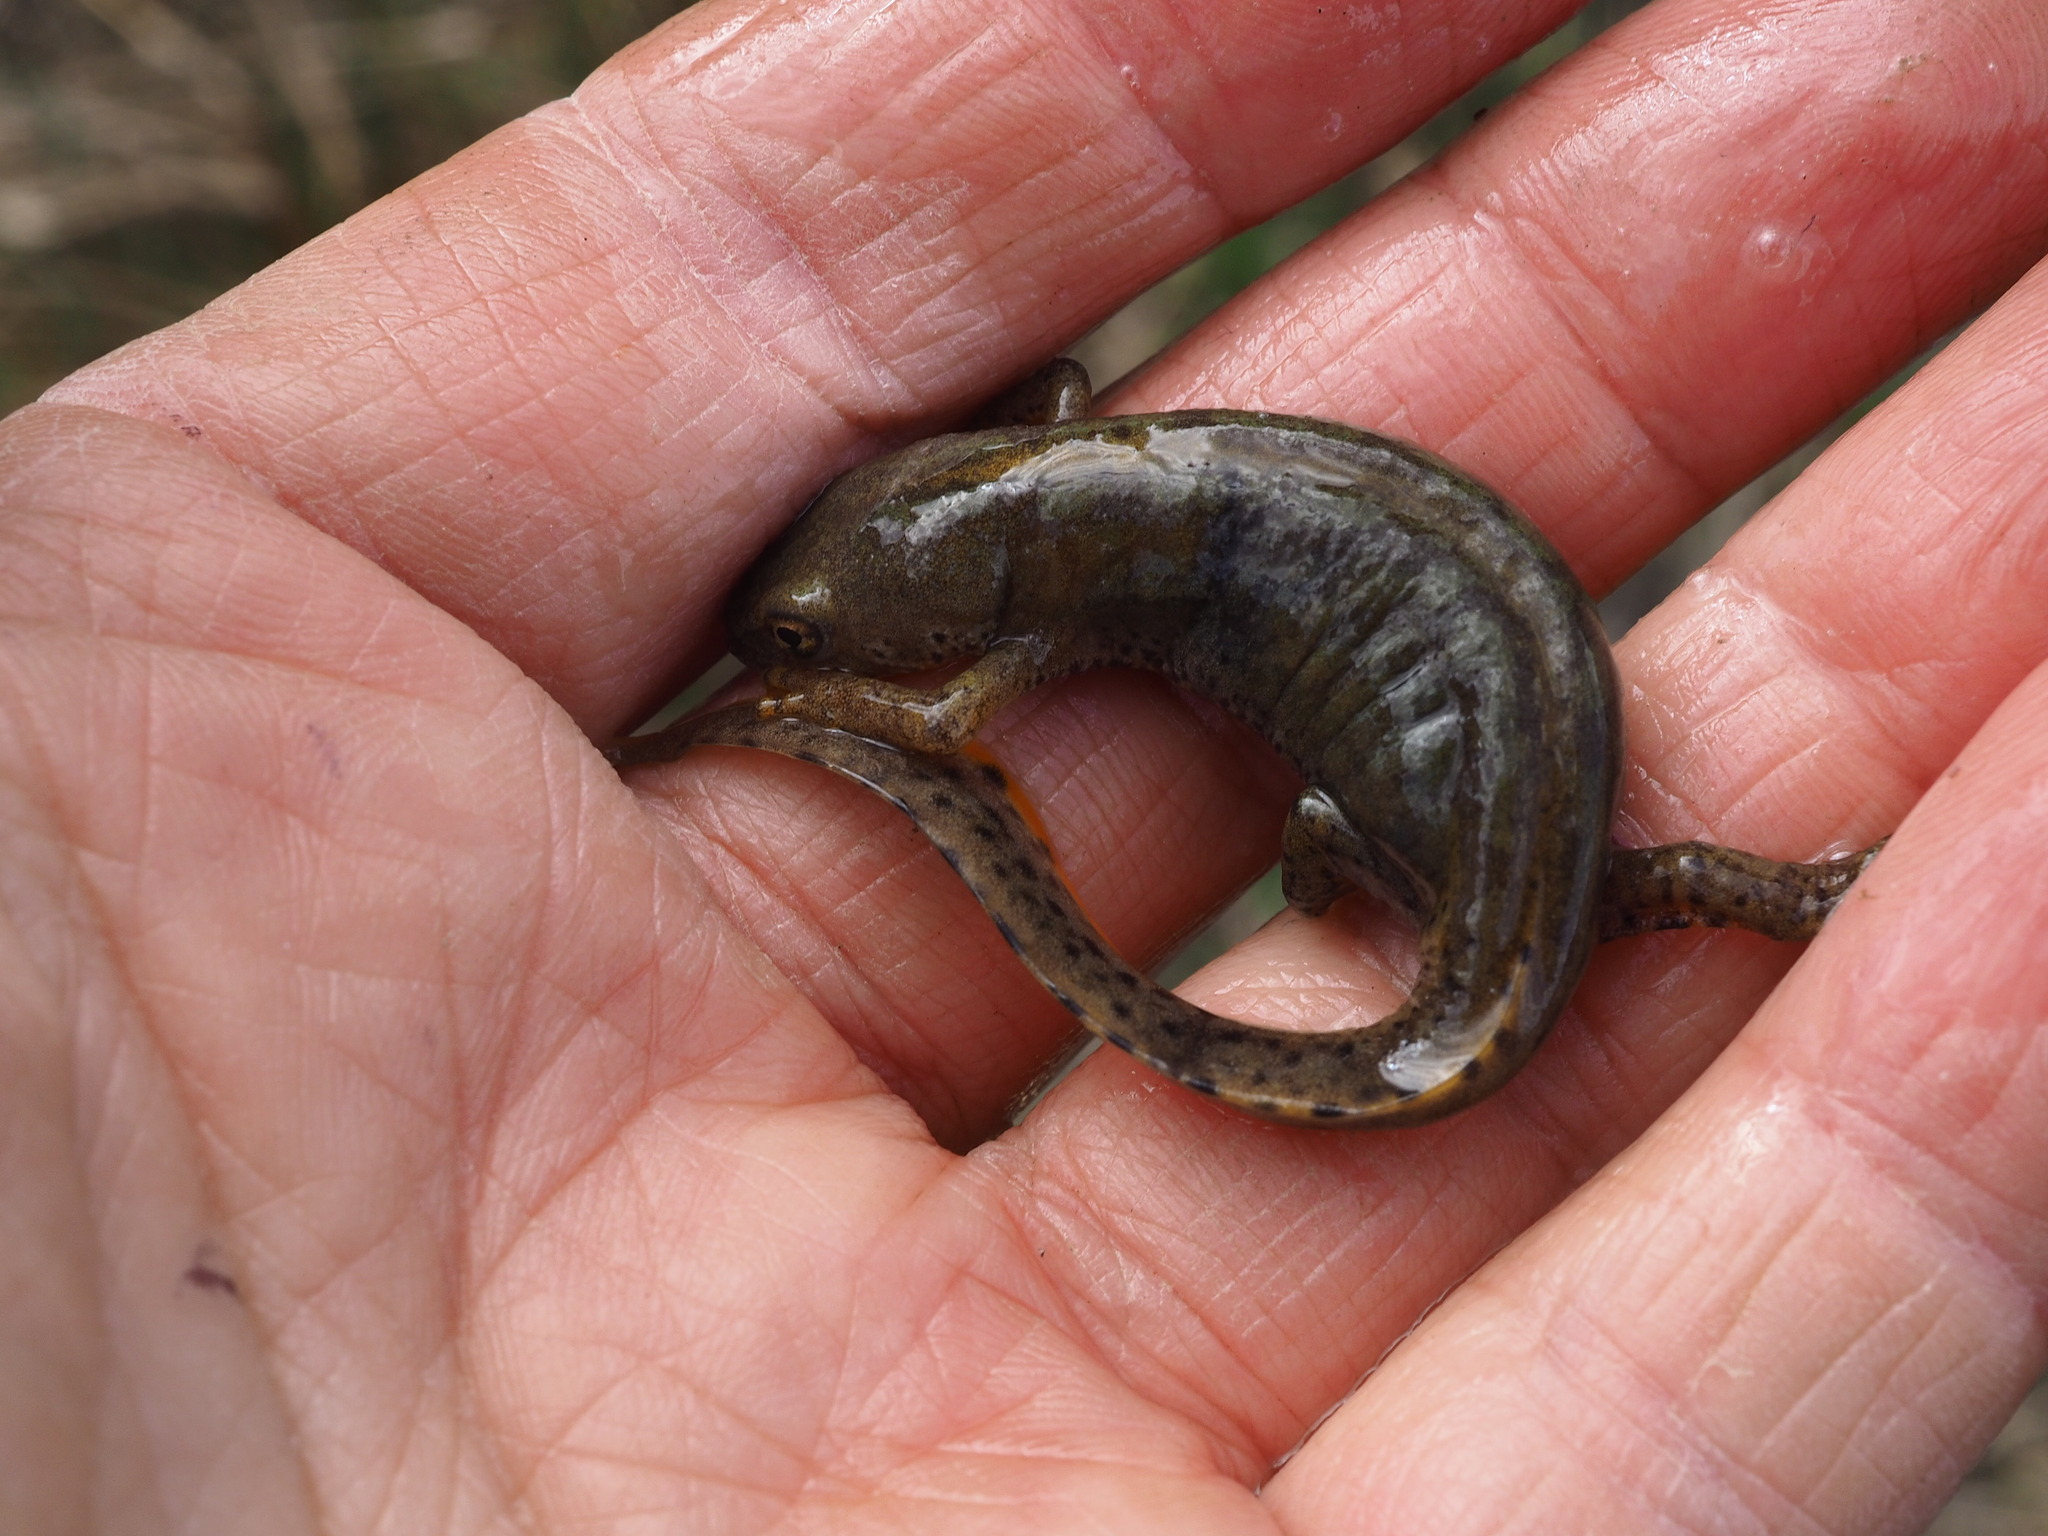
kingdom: Animalia
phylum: Chordata
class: Amphibia
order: Caudata
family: Salamandridae
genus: Ichthyosaura
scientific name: Ichthyosaura alpestris
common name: Alpine newt
